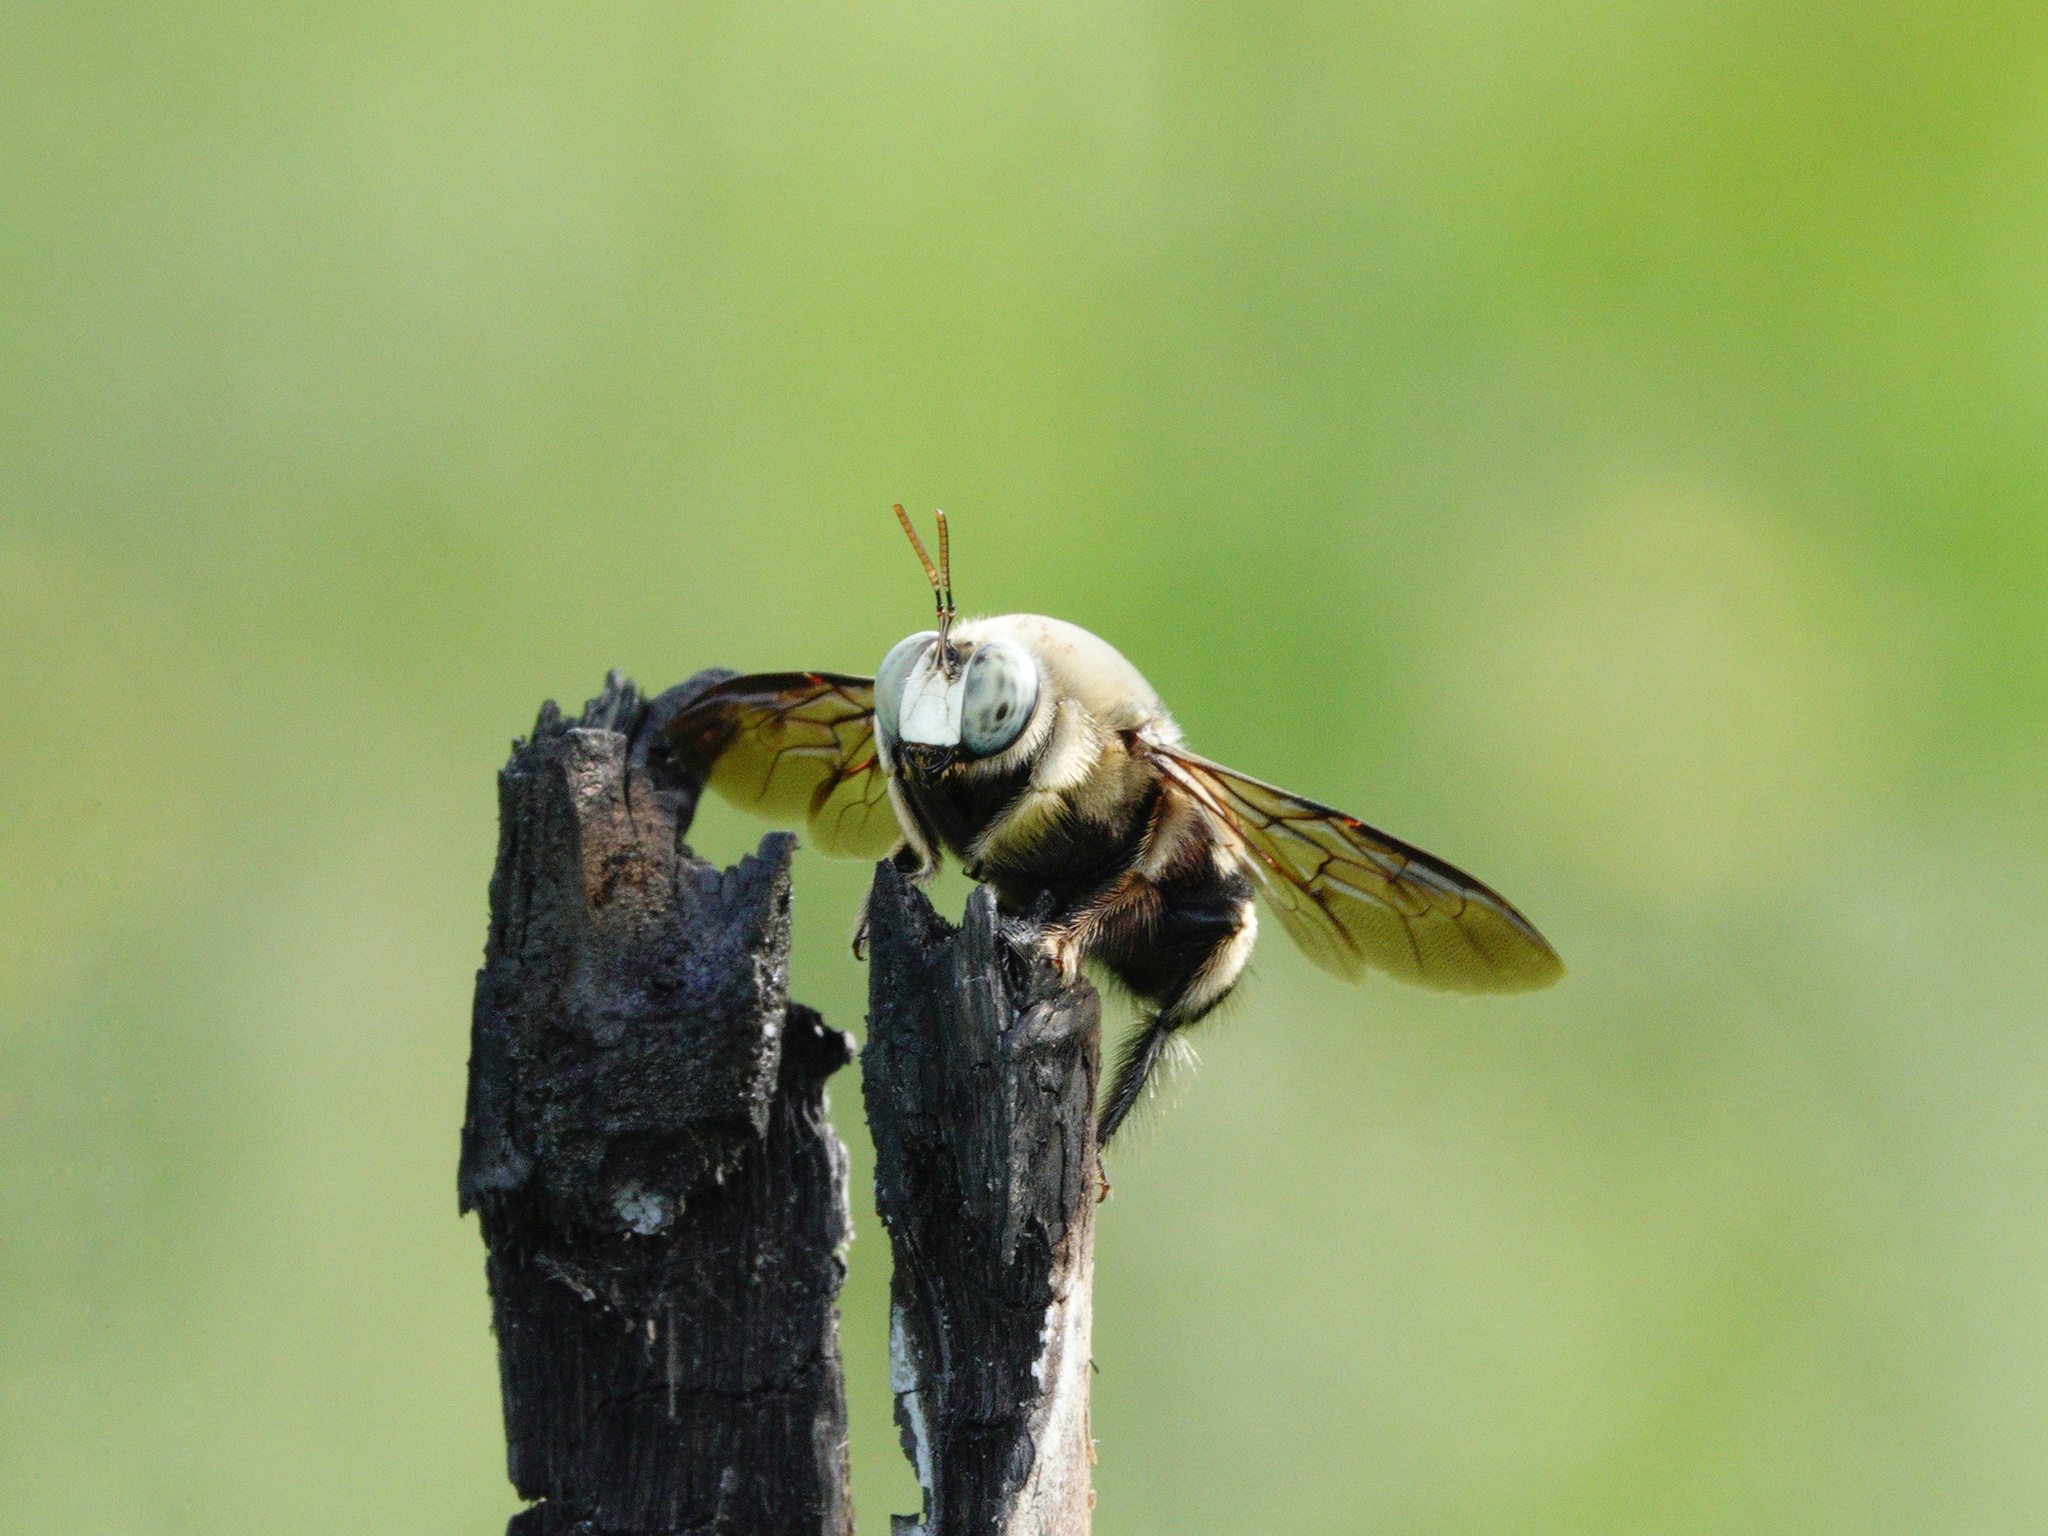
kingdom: Animalia
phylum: Arthropoda
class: Insecta
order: Hymenoptera
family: Apidae
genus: Xylocopa
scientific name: Xylocopa dejeanii
